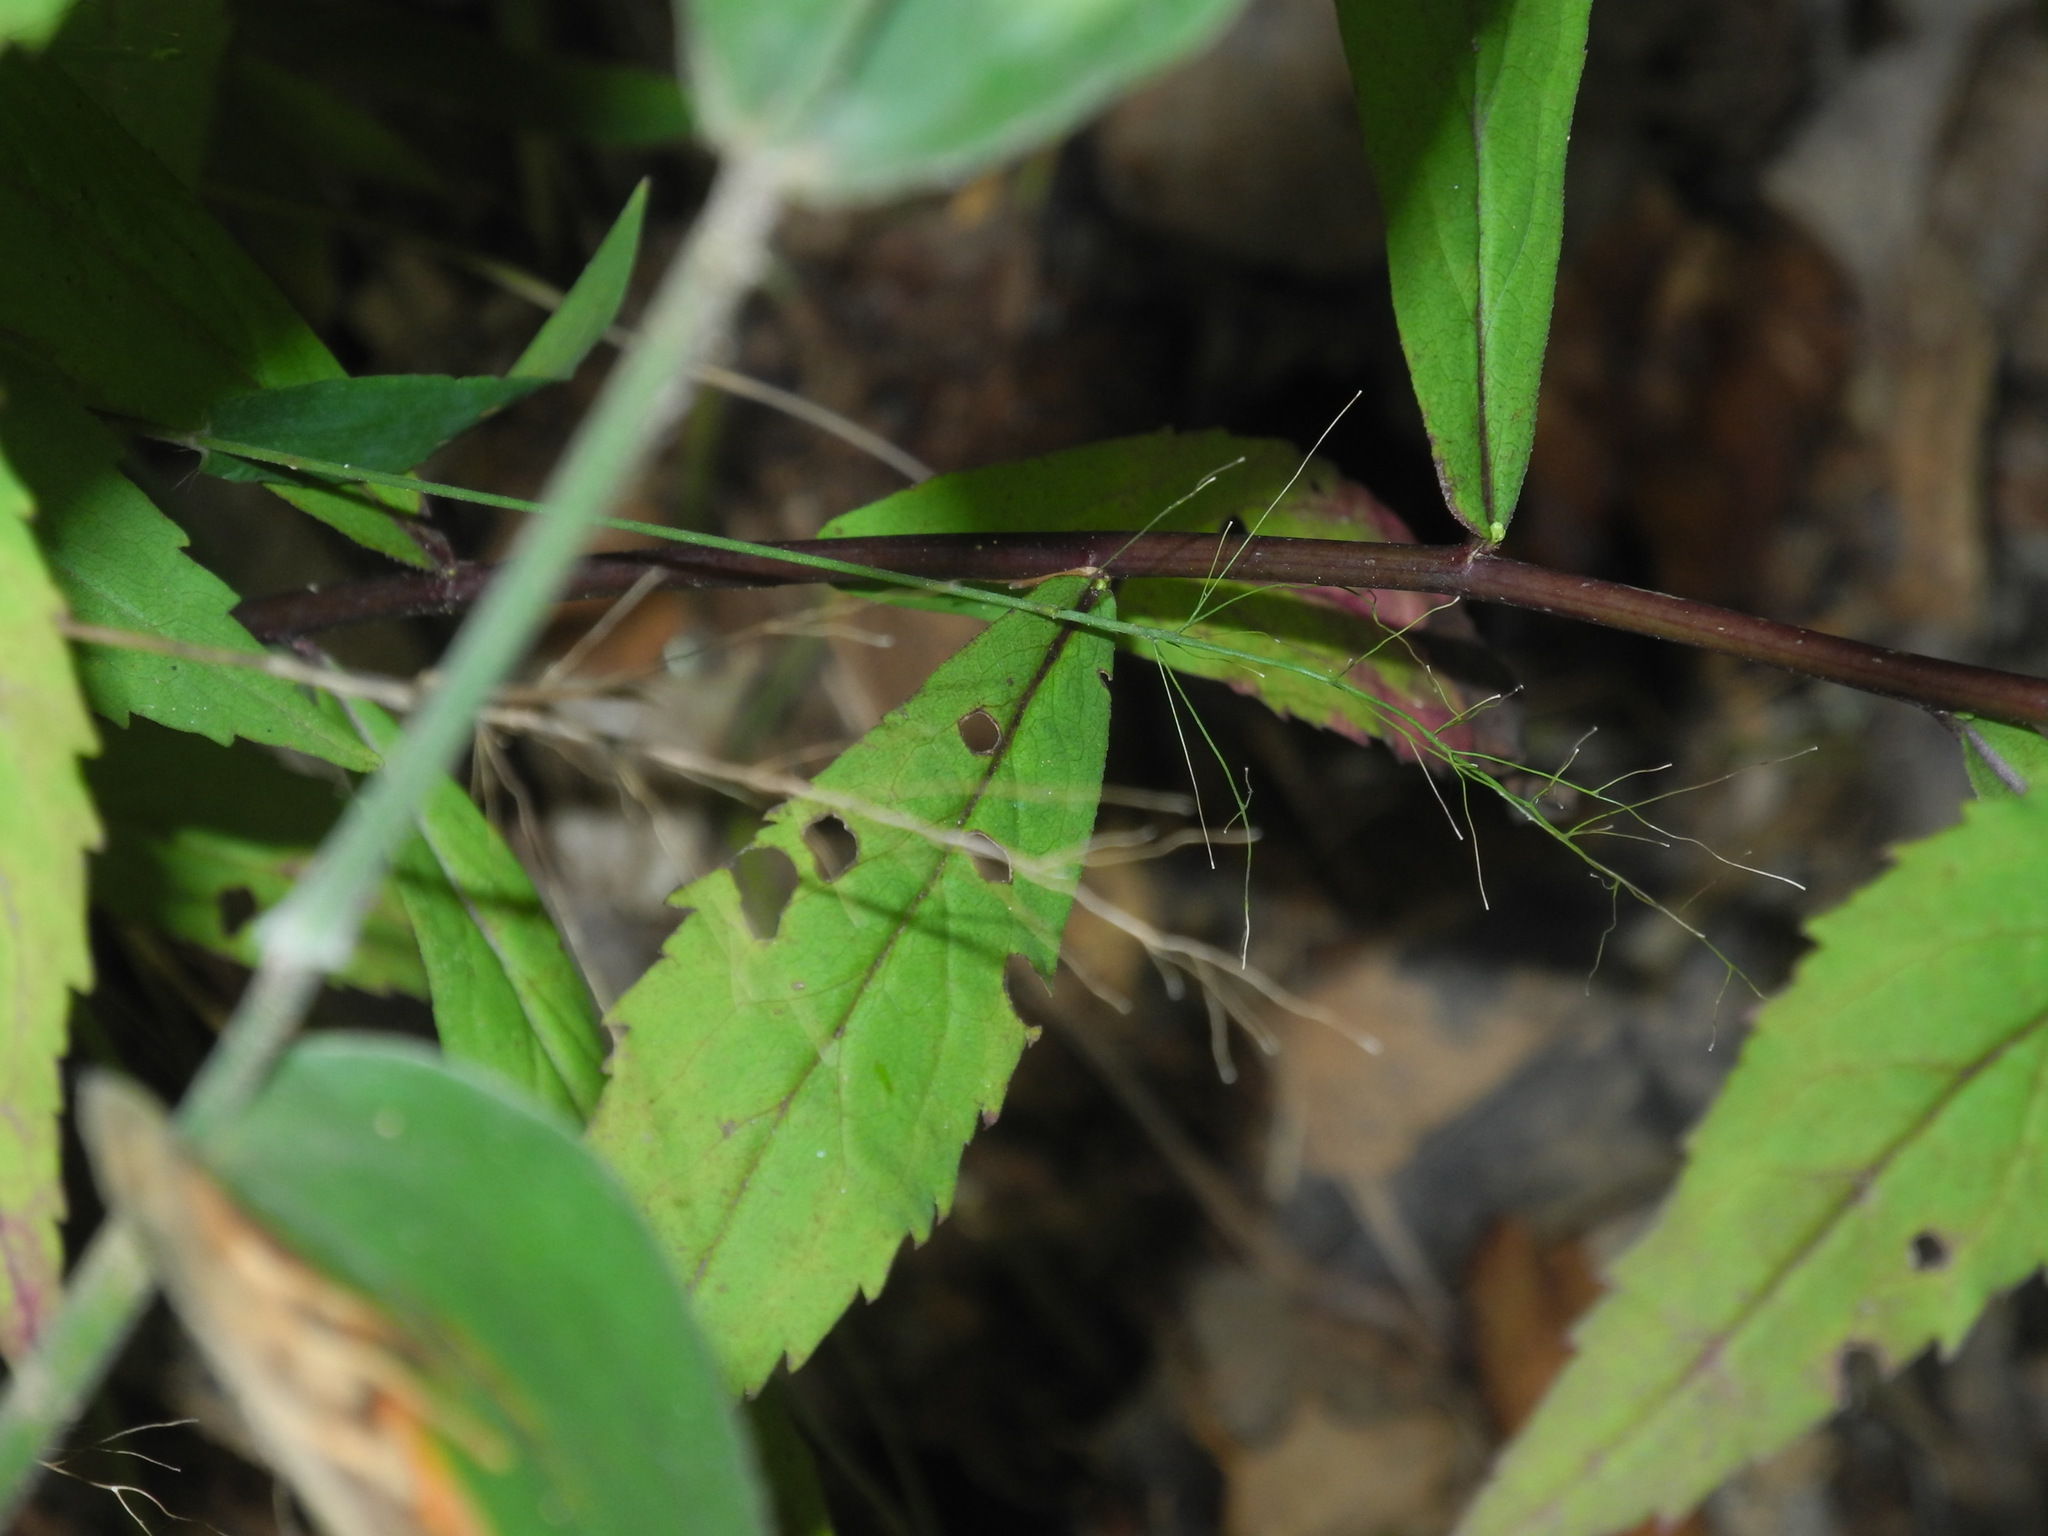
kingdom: Plantae
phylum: Tracheophyta
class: Magnoliopsida
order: Asterales
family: Asteraceae
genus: Solidago
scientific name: Solidago caesia
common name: Woodland goldenrod
